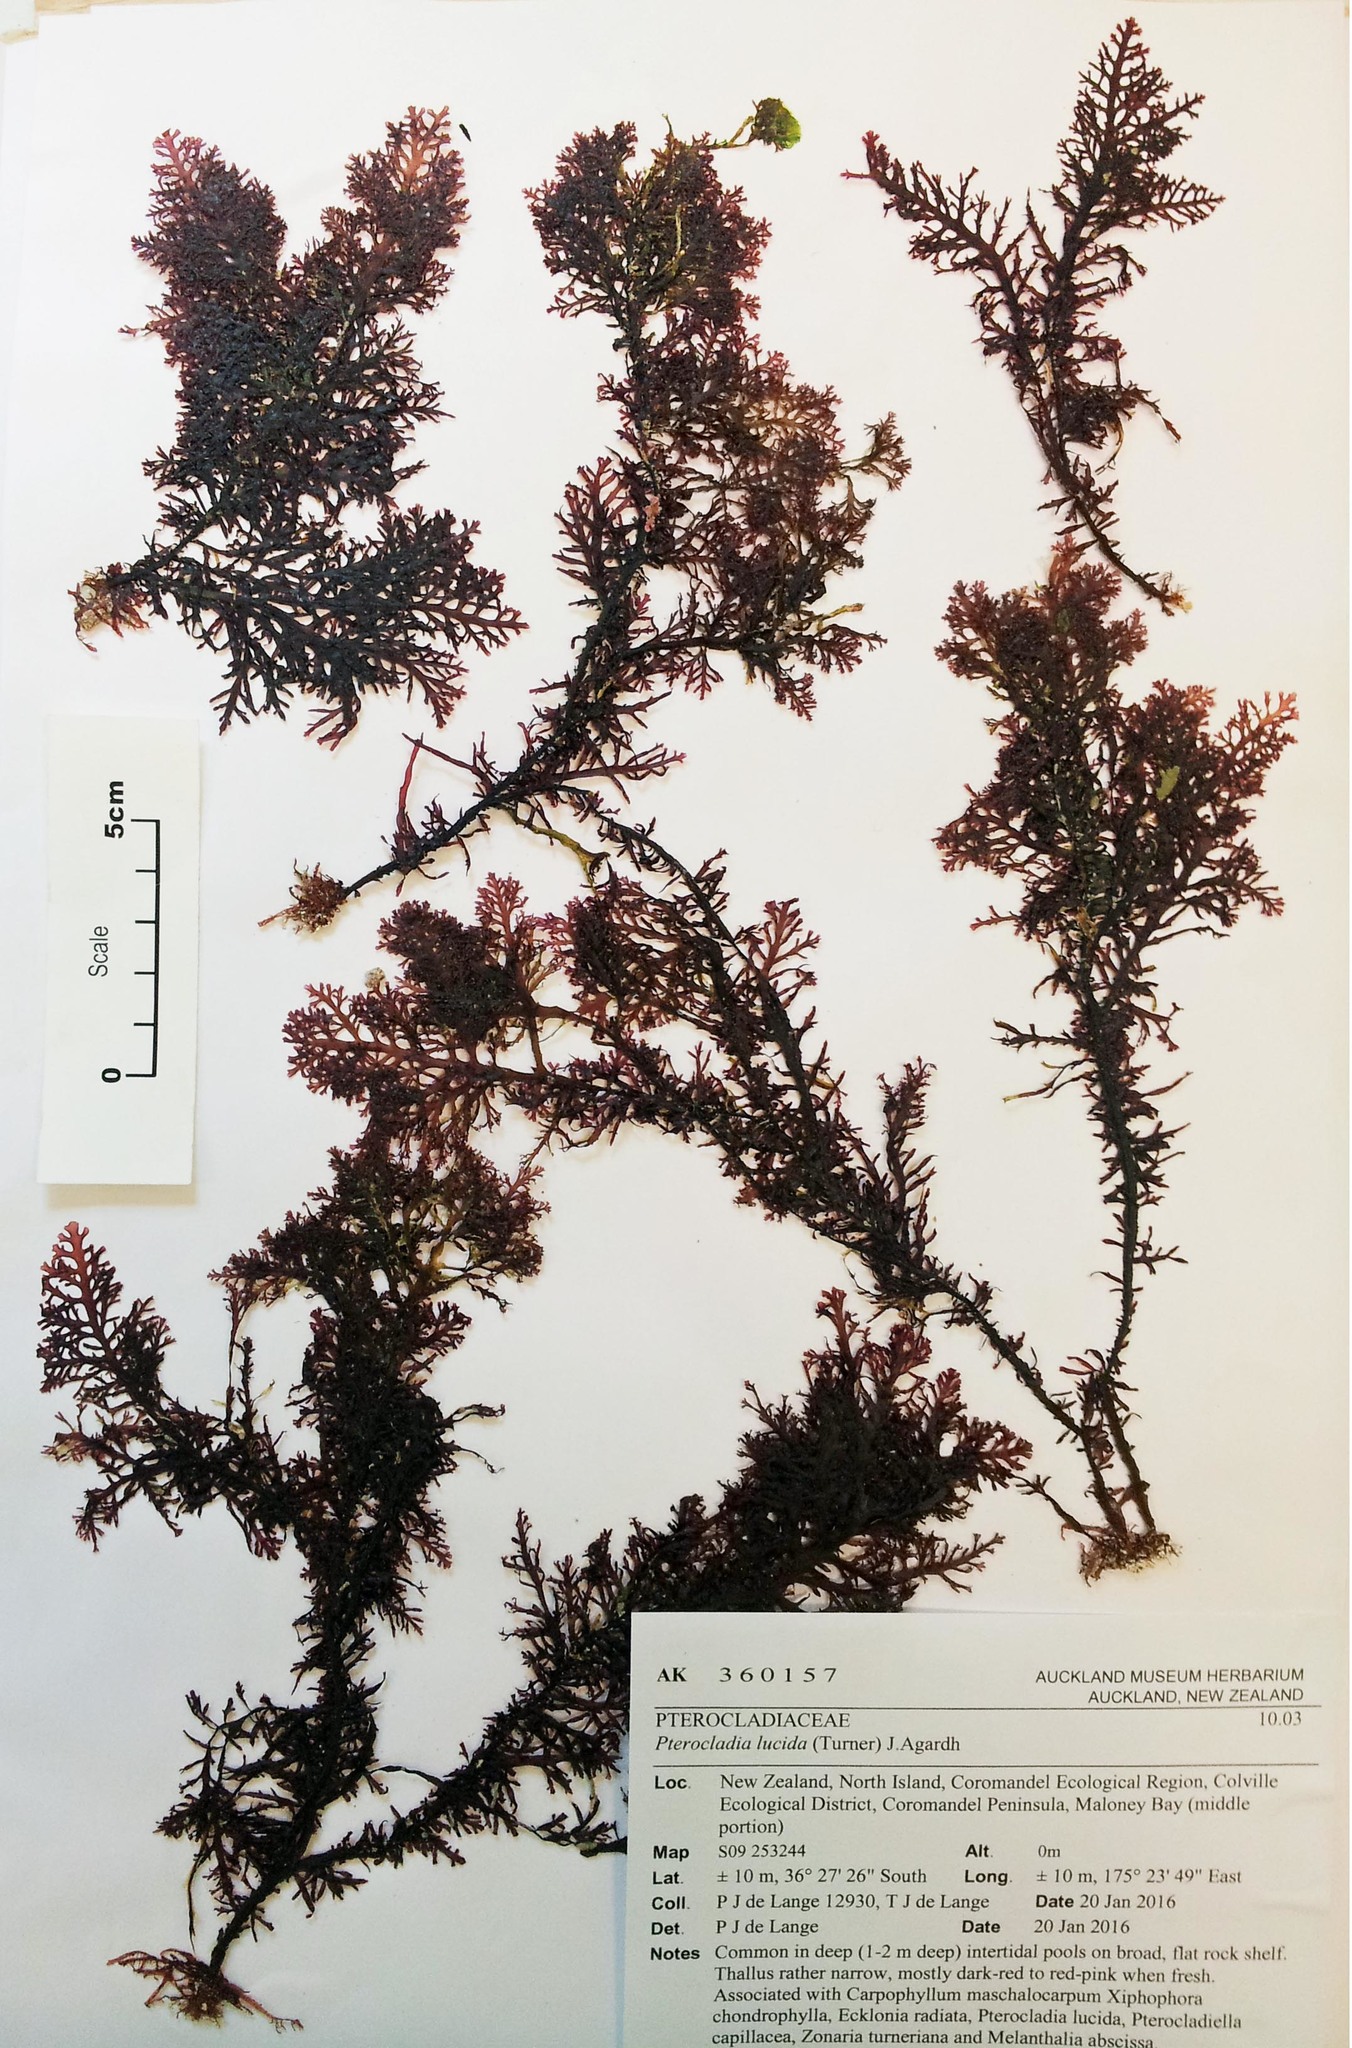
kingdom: Plantae
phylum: Rhodophyta
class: Florideophyceae
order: Gelidiales
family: Pterocladiaceae
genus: Pterocladia
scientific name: Pterocladia lucida
